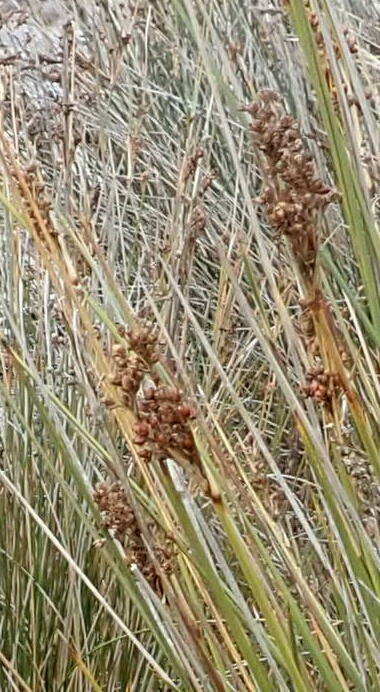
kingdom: Plantae
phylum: Tracheophyta
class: Liliopsida
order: Poales
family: Juncaceae
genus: Juncus
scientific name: Juncus acutus
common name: Sharp rush
